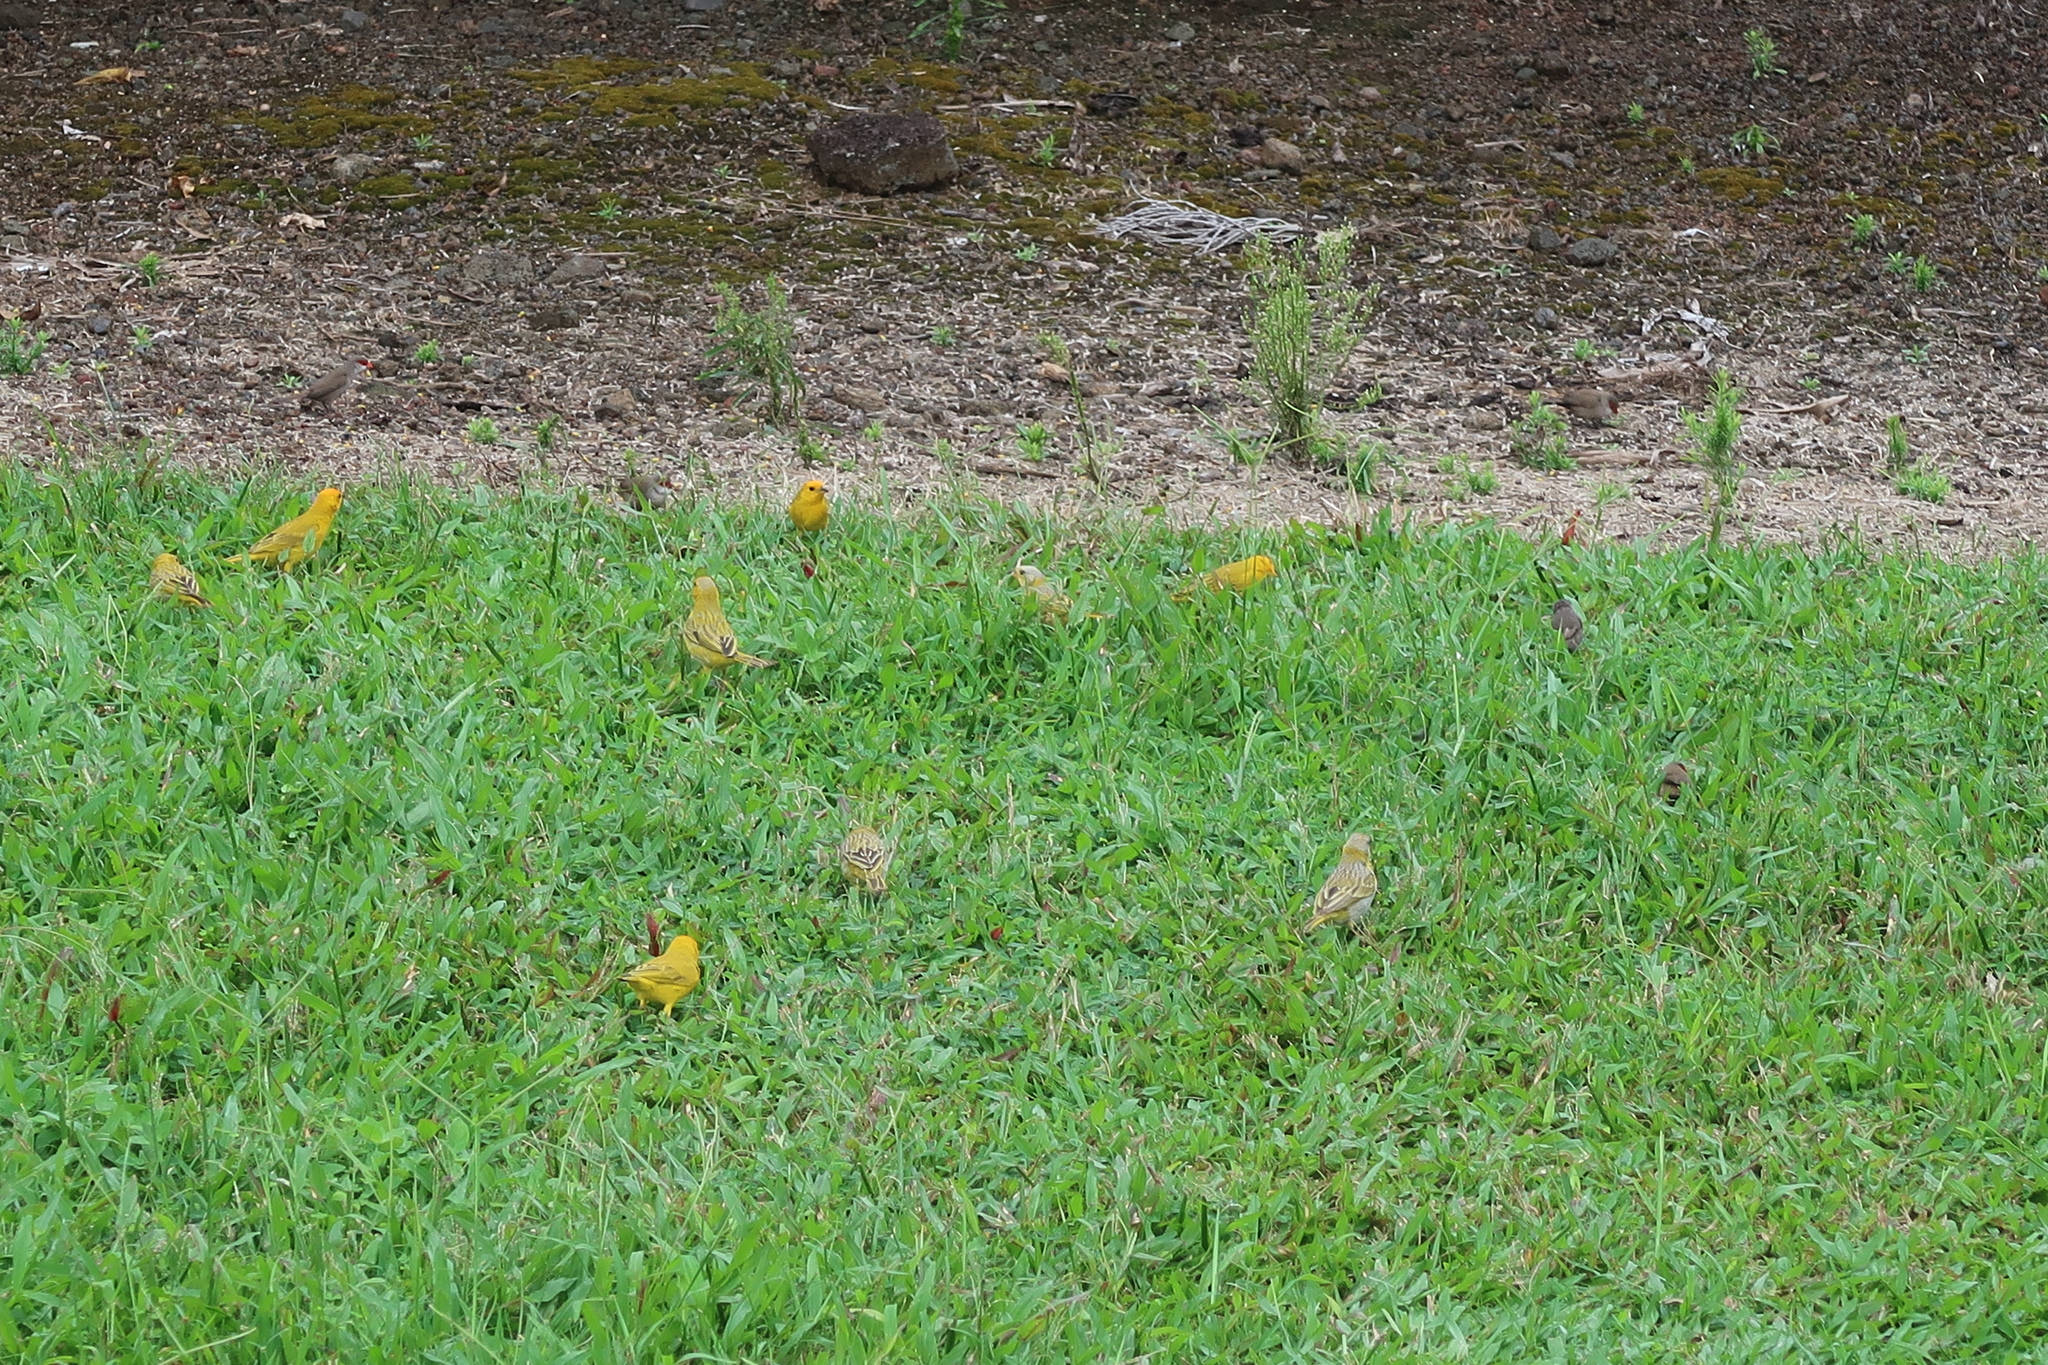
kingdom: Animalia
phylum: Chordata
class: Aves
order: Passeriformes
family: Thraupidae
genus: Sicalis
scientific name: Sicalis flaveola
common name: Saffron finch
